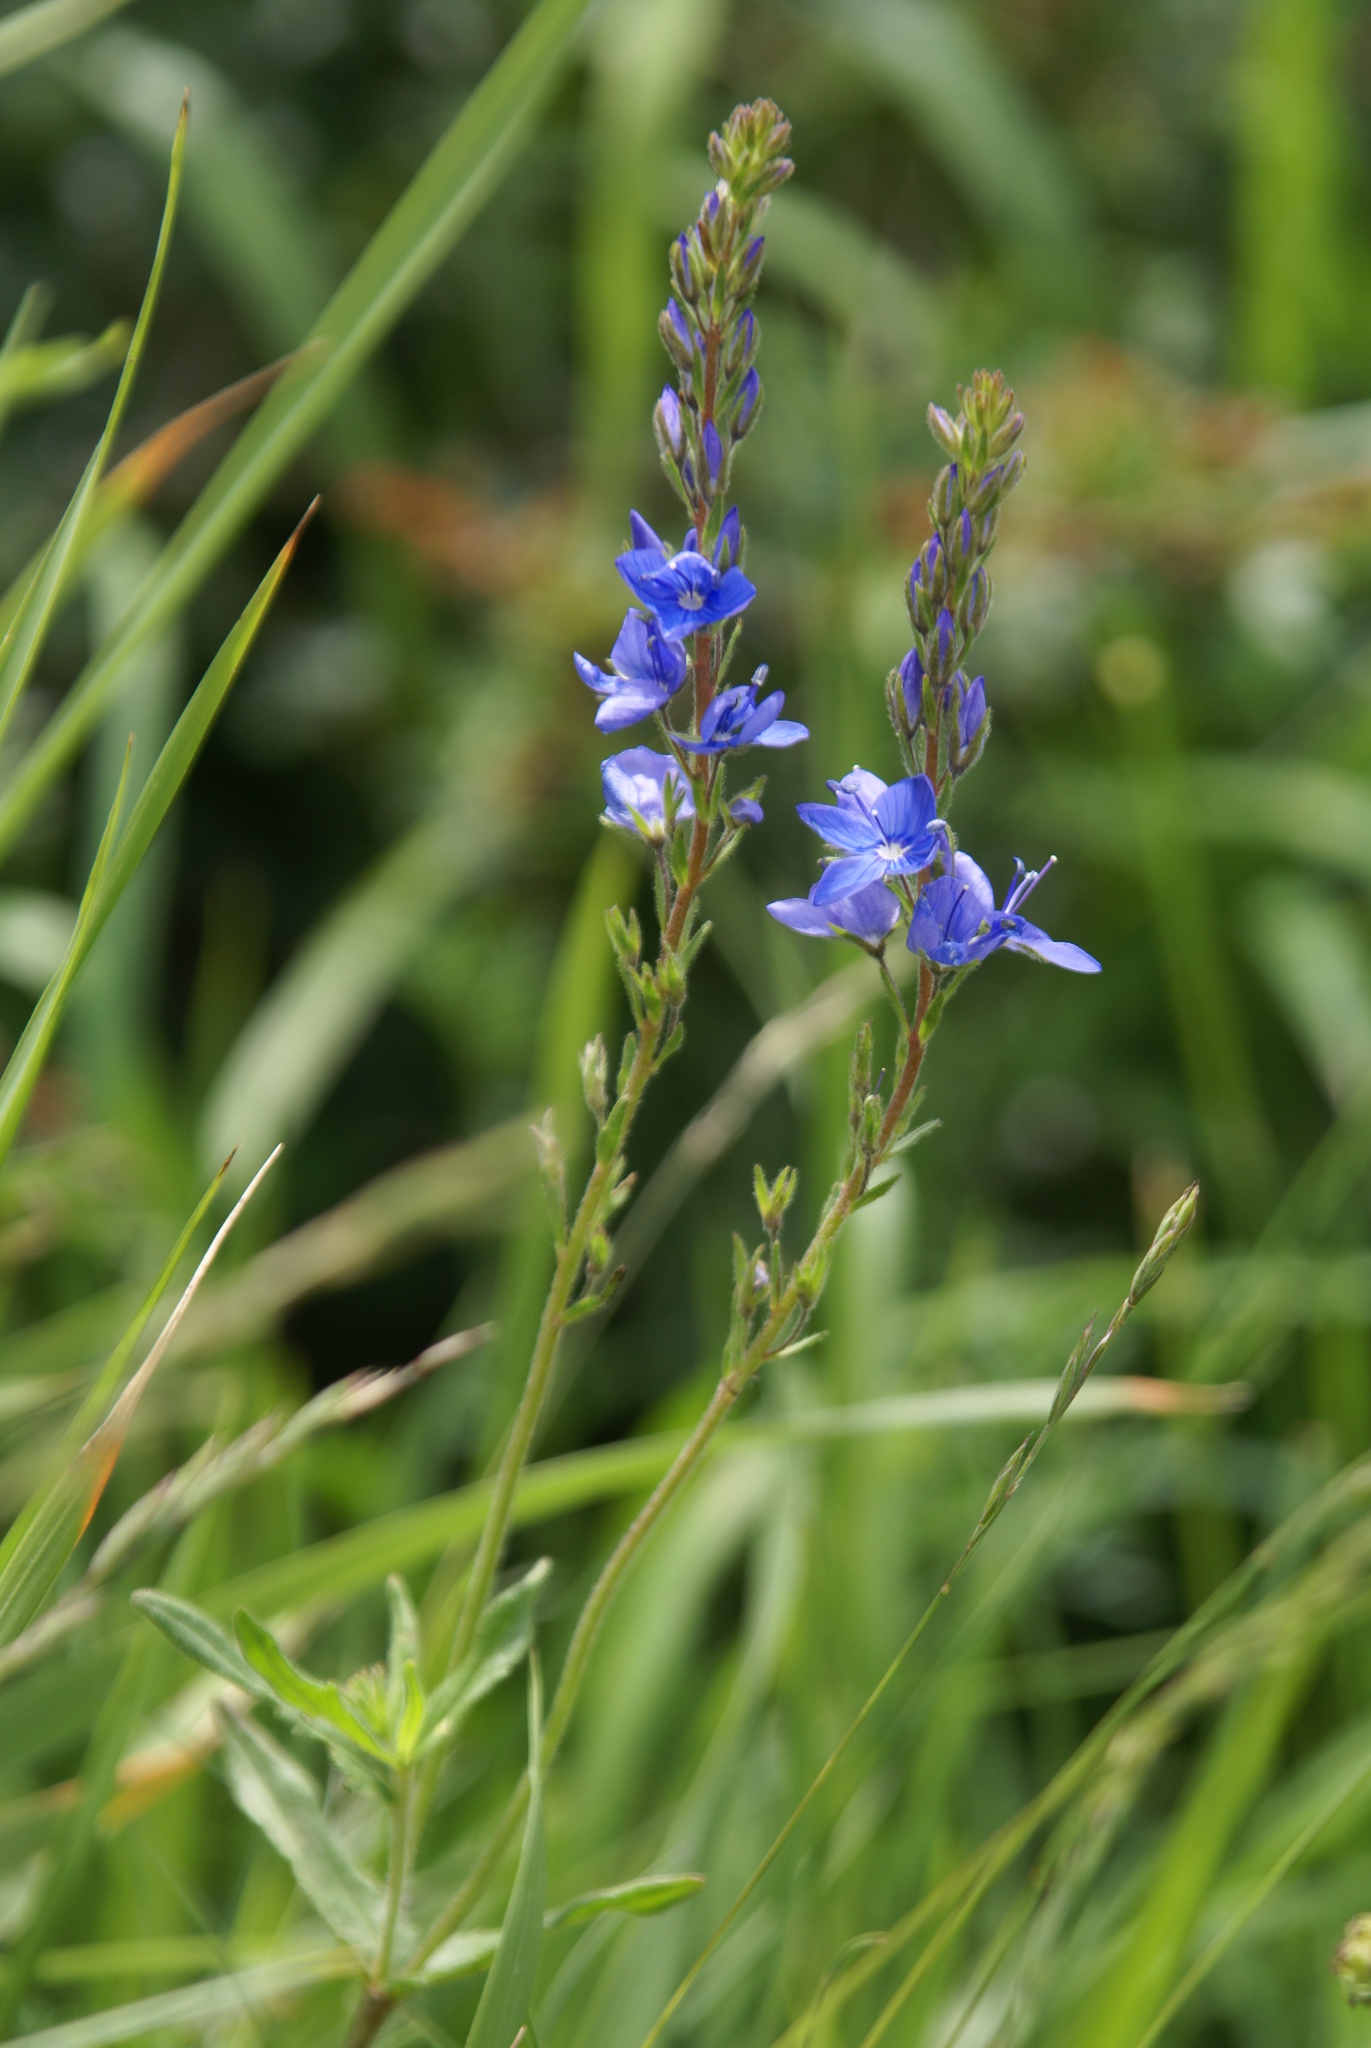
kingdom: Plantae
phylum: Tracheophyta
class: Magnoliopsida
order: Lamiales
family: Plantaginaceae
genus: Veronica
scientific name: Veronica sennenii
